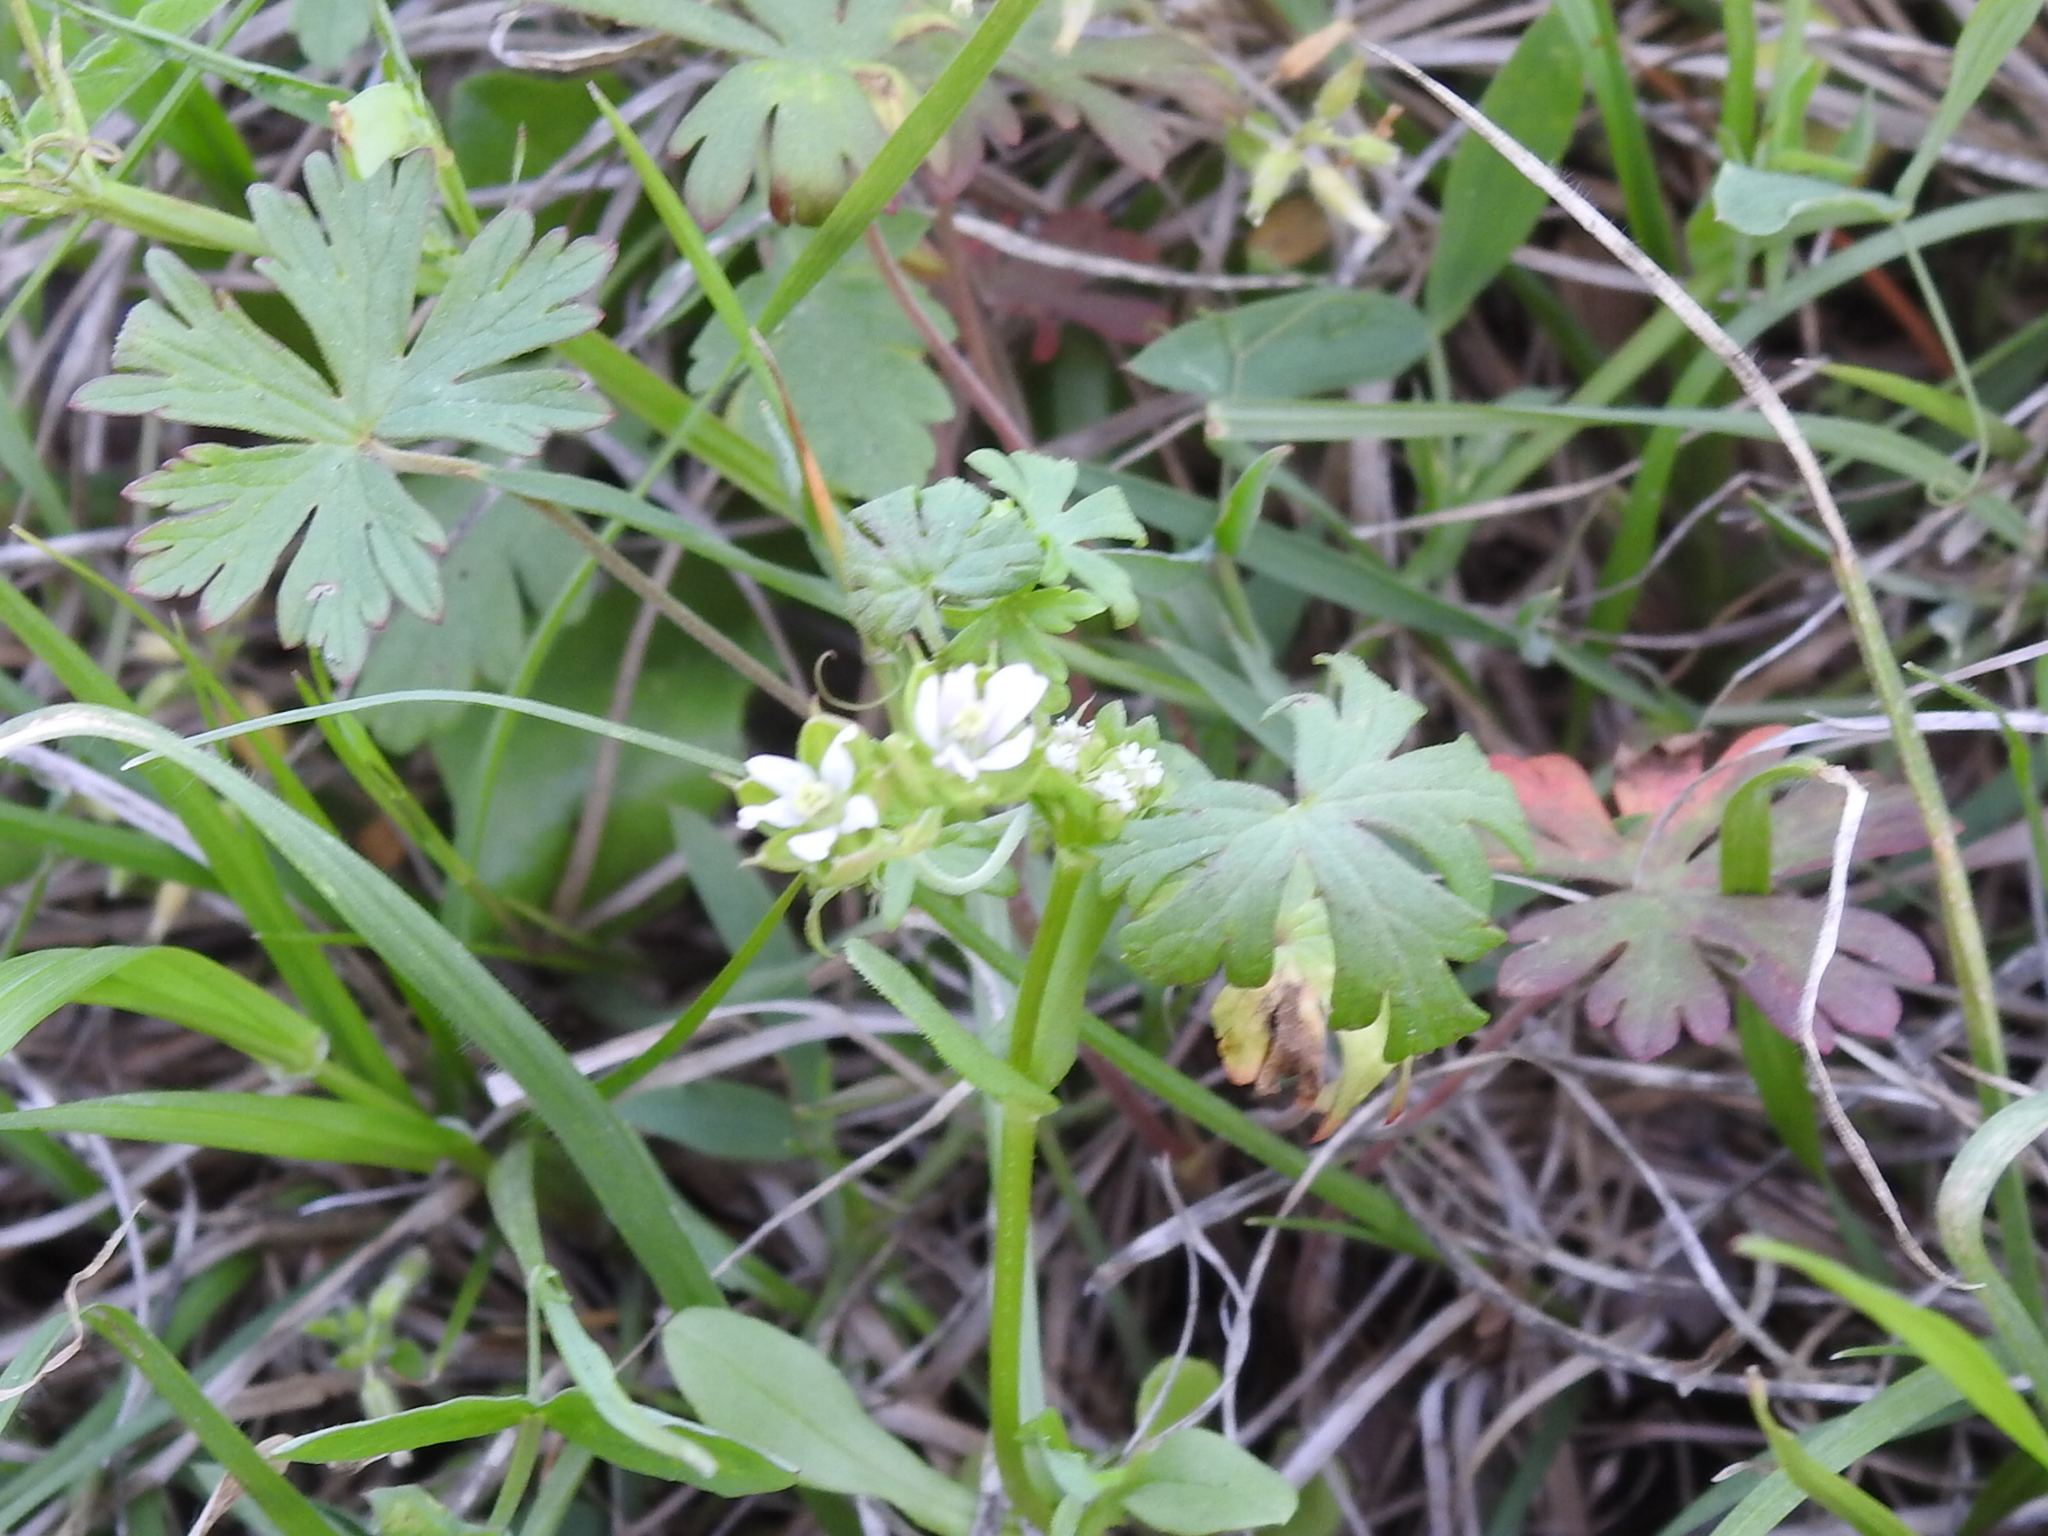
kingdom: Plantae
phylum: Tracheophyta
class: Magnoliopsida
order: Geraniales
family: Geraniaceae
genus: Geranium
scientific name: Geranium carolinianum
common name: Carolina crane's-bill
